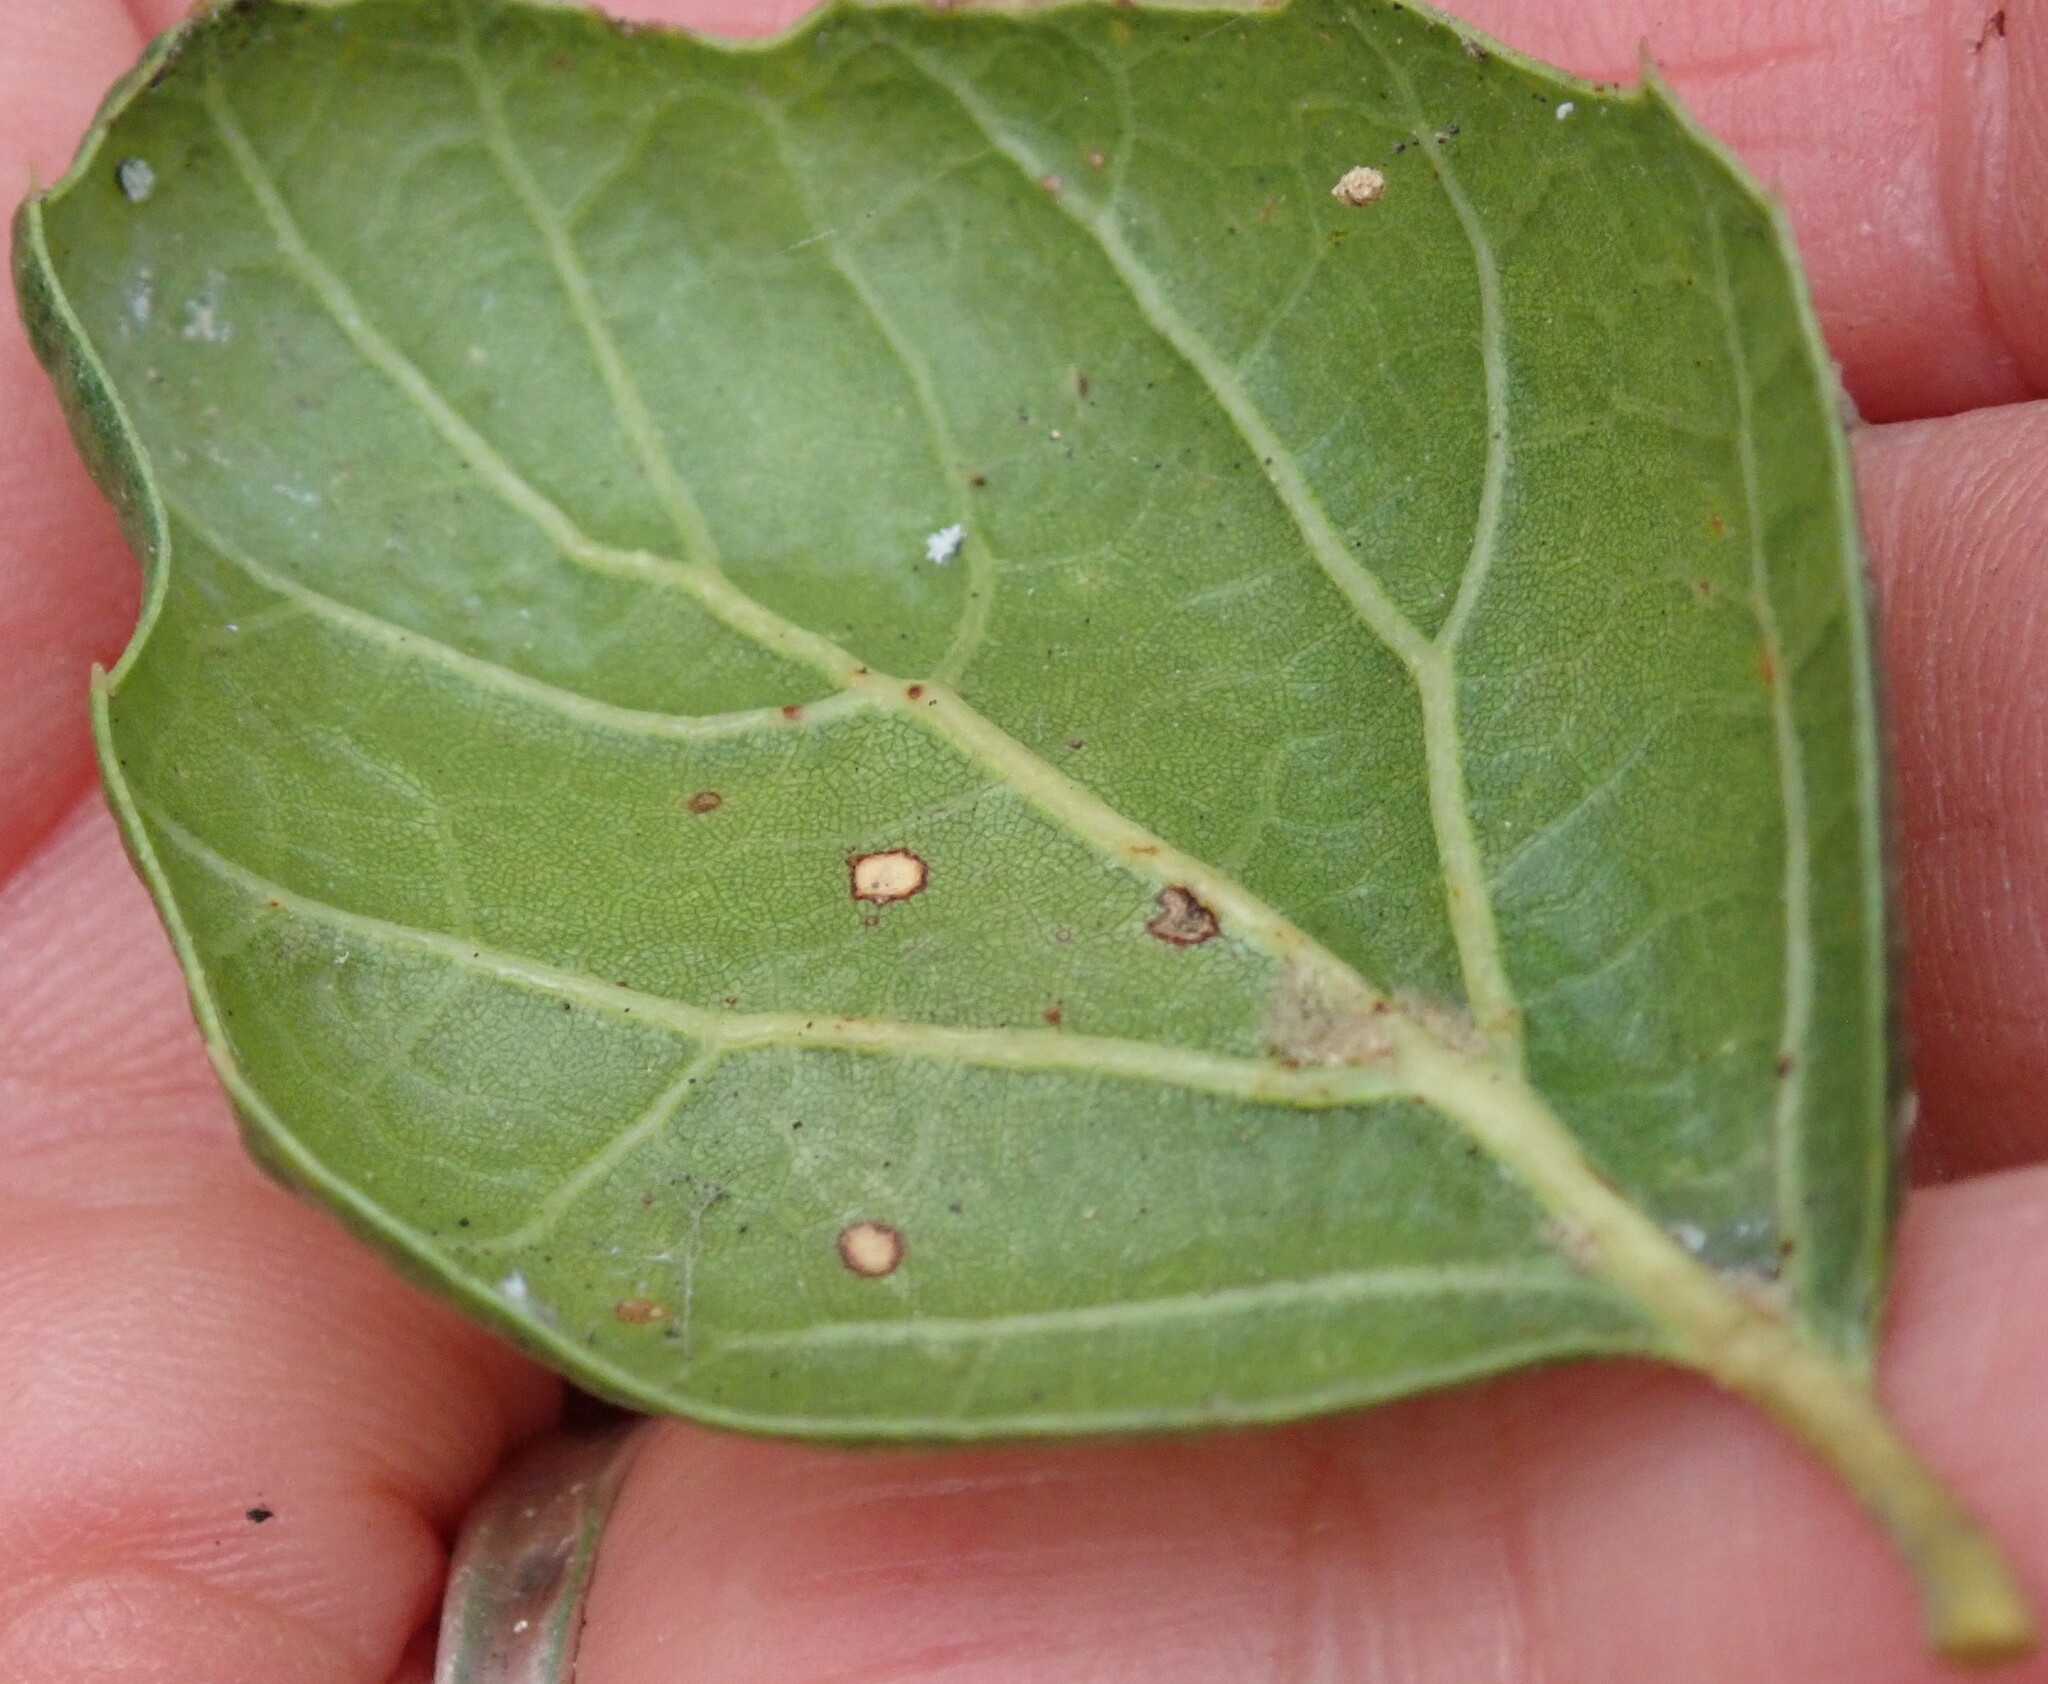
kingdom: Animalia
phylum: Arthropoda
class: Insecta
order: Hemiptera
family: Aleyrodidae
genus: Aleuroplatus
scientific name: Aleuroplatus coronata
